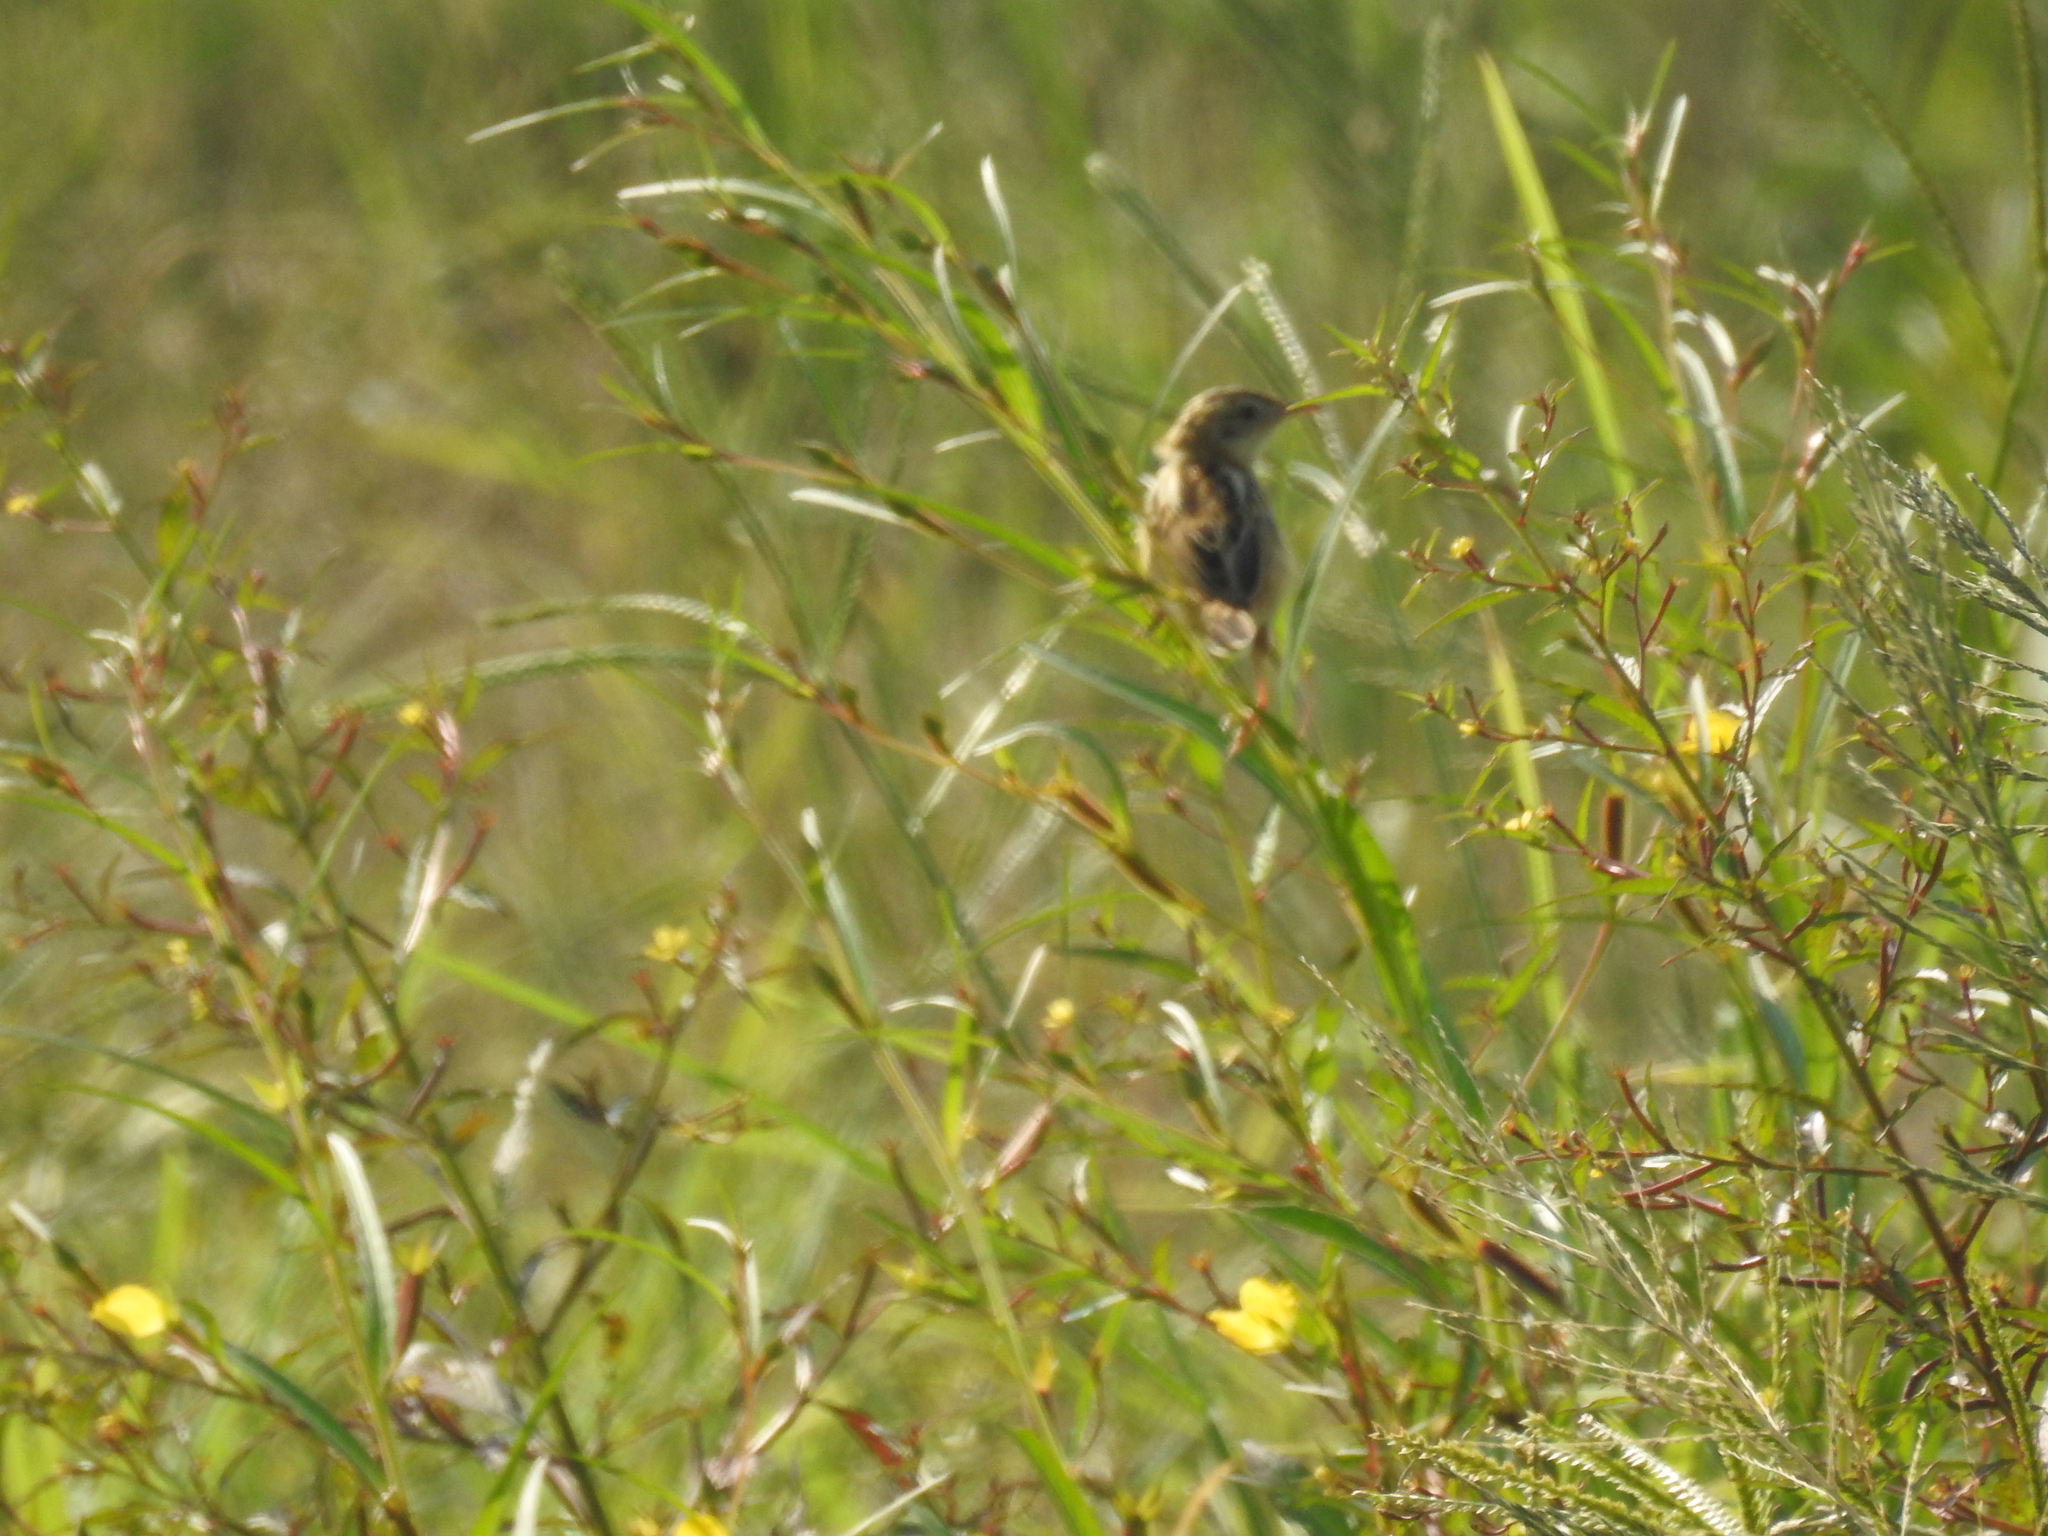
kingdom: Animalia
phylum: Chordata
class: Aves
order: Passeriformes
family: Cisticolidae
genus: Cisticola
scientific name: Cisticola juncidis
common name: Zitting cisticola
